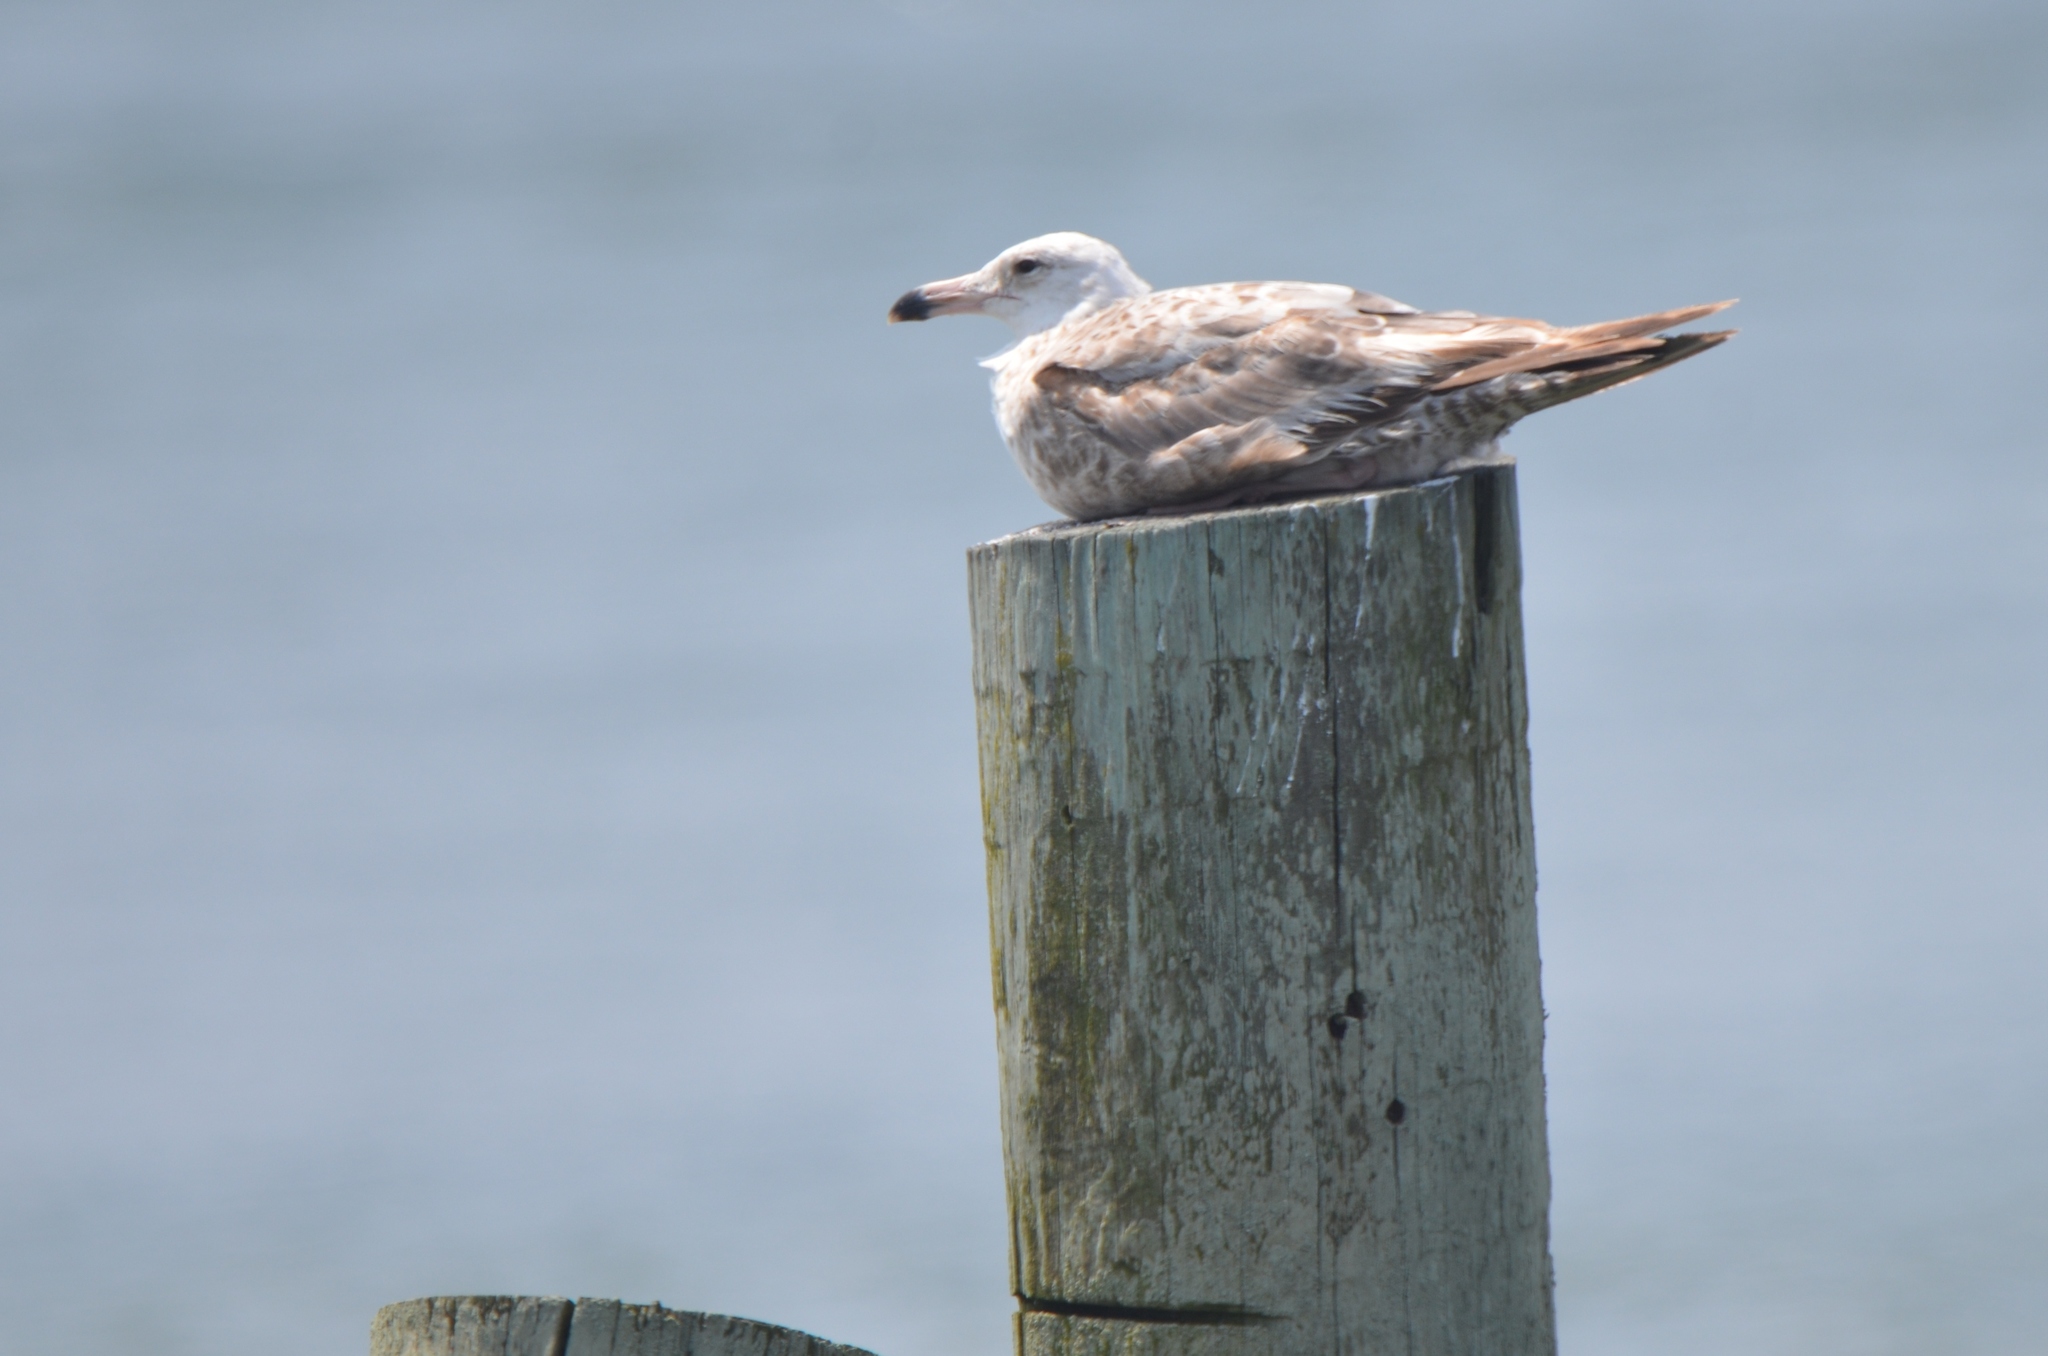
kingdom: Animalia
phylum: Chordata
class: Aves
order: Charadriiformes
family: Laridae
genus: Larus
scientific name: Larus argentatus
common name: Herring gull
